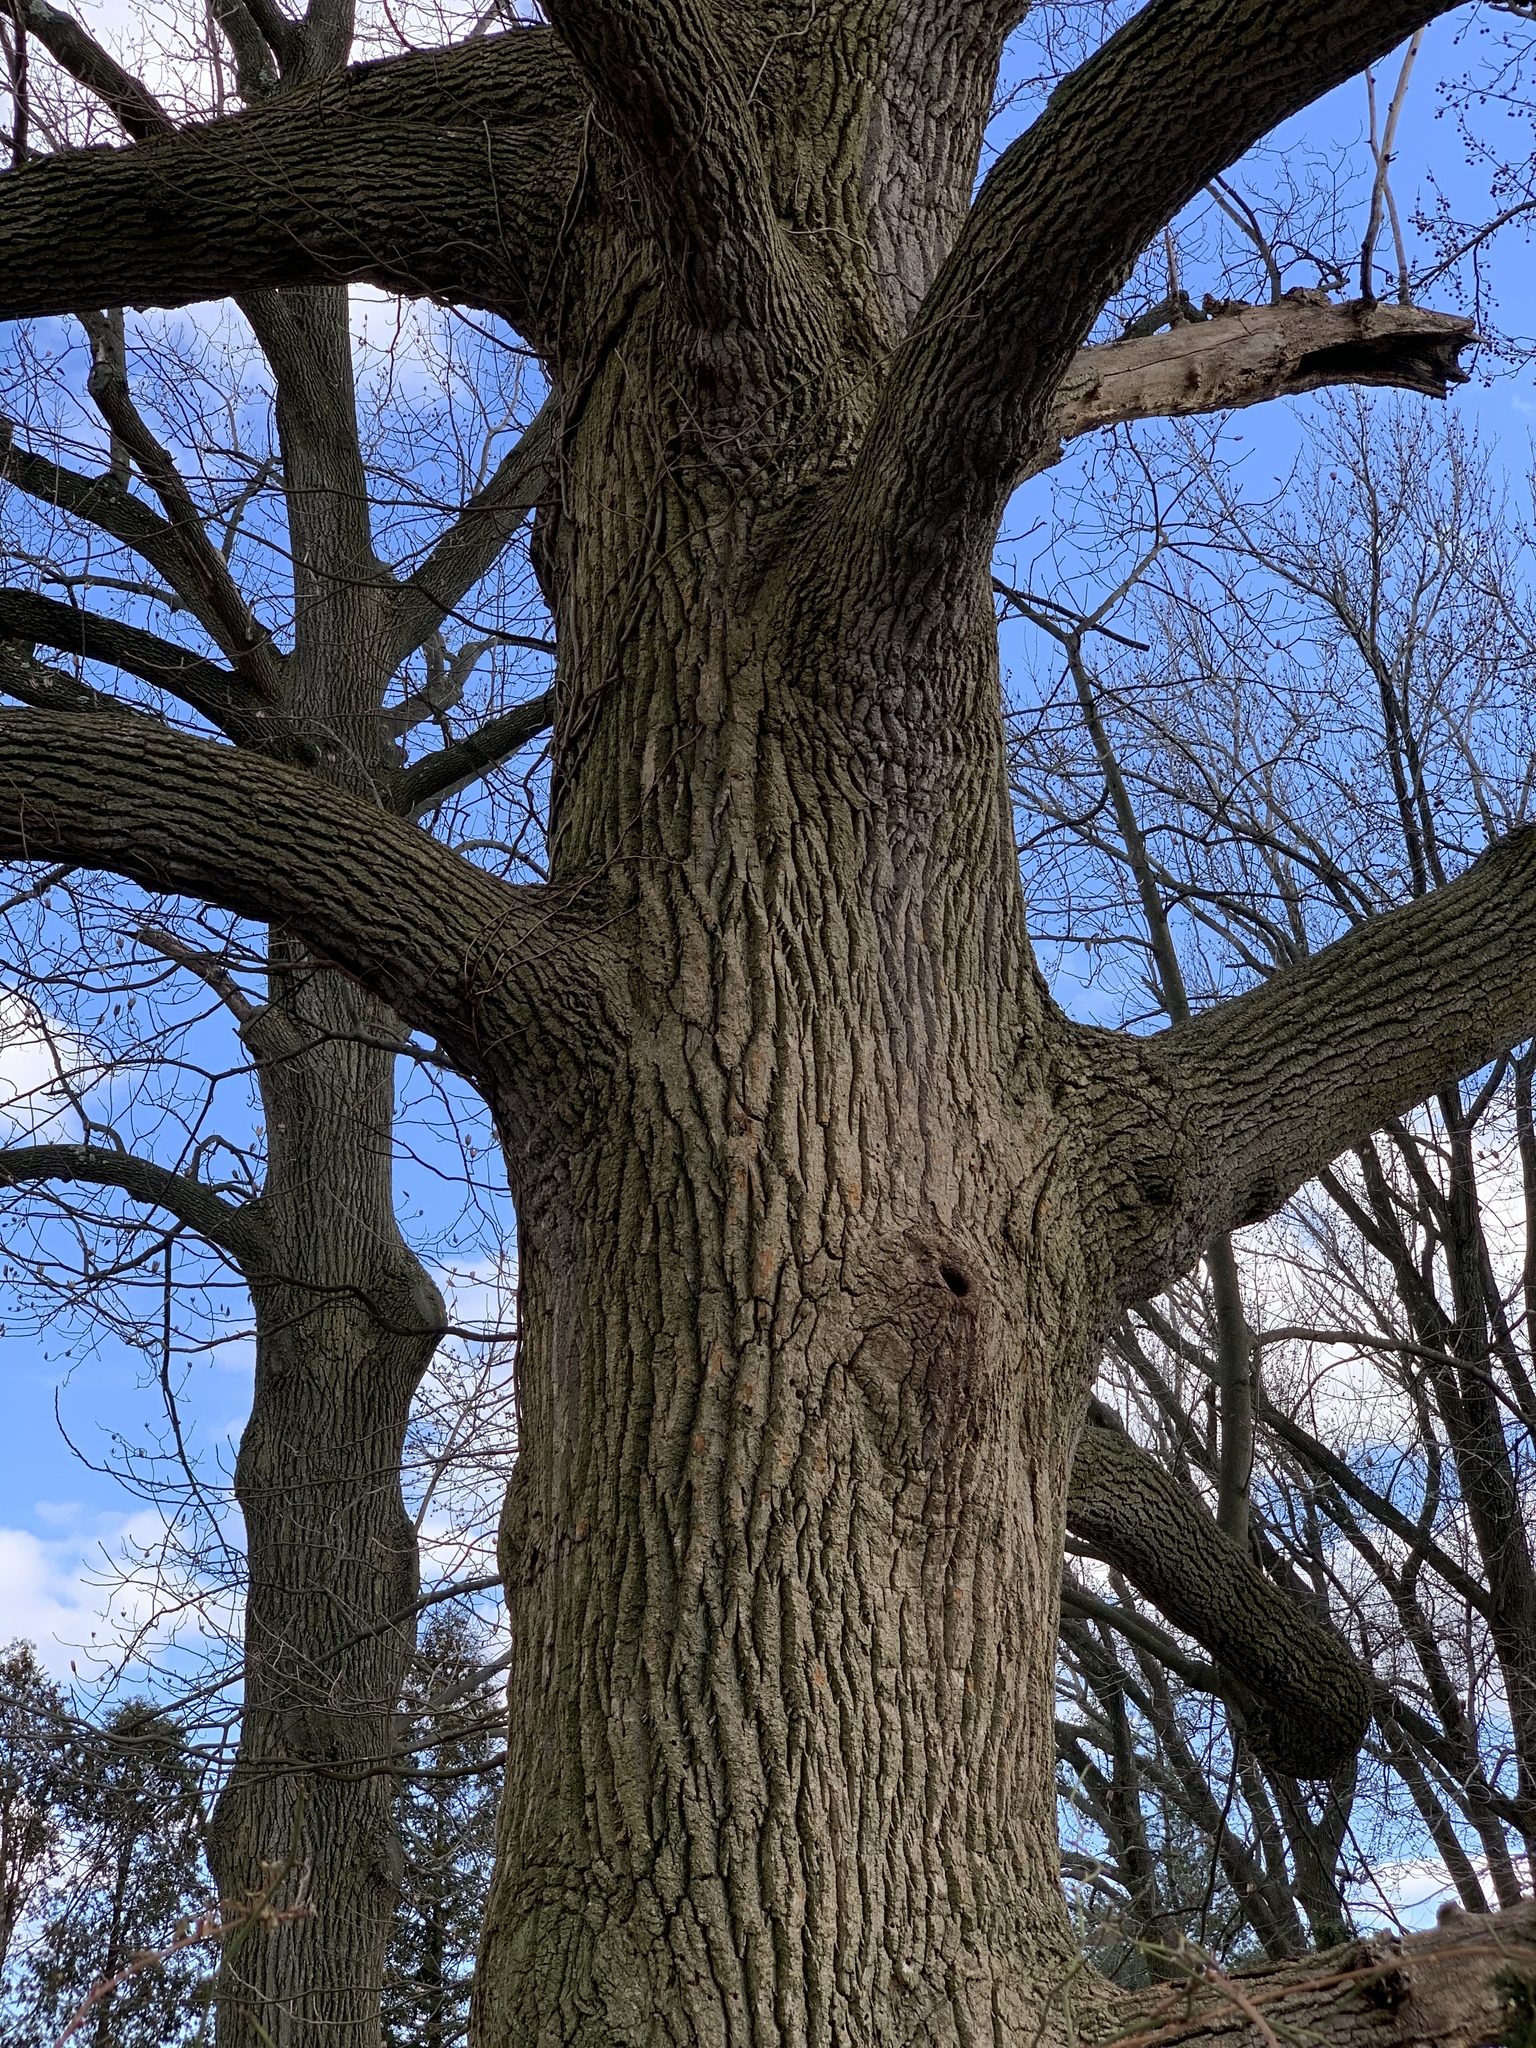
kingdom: Plantae
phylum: Tracheophyta
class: Magnoliopsida
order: Magnoliales
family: Magnoliaceae
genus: Liriodendron
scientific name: Liriodendron tulipifera
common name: Tulip tree
